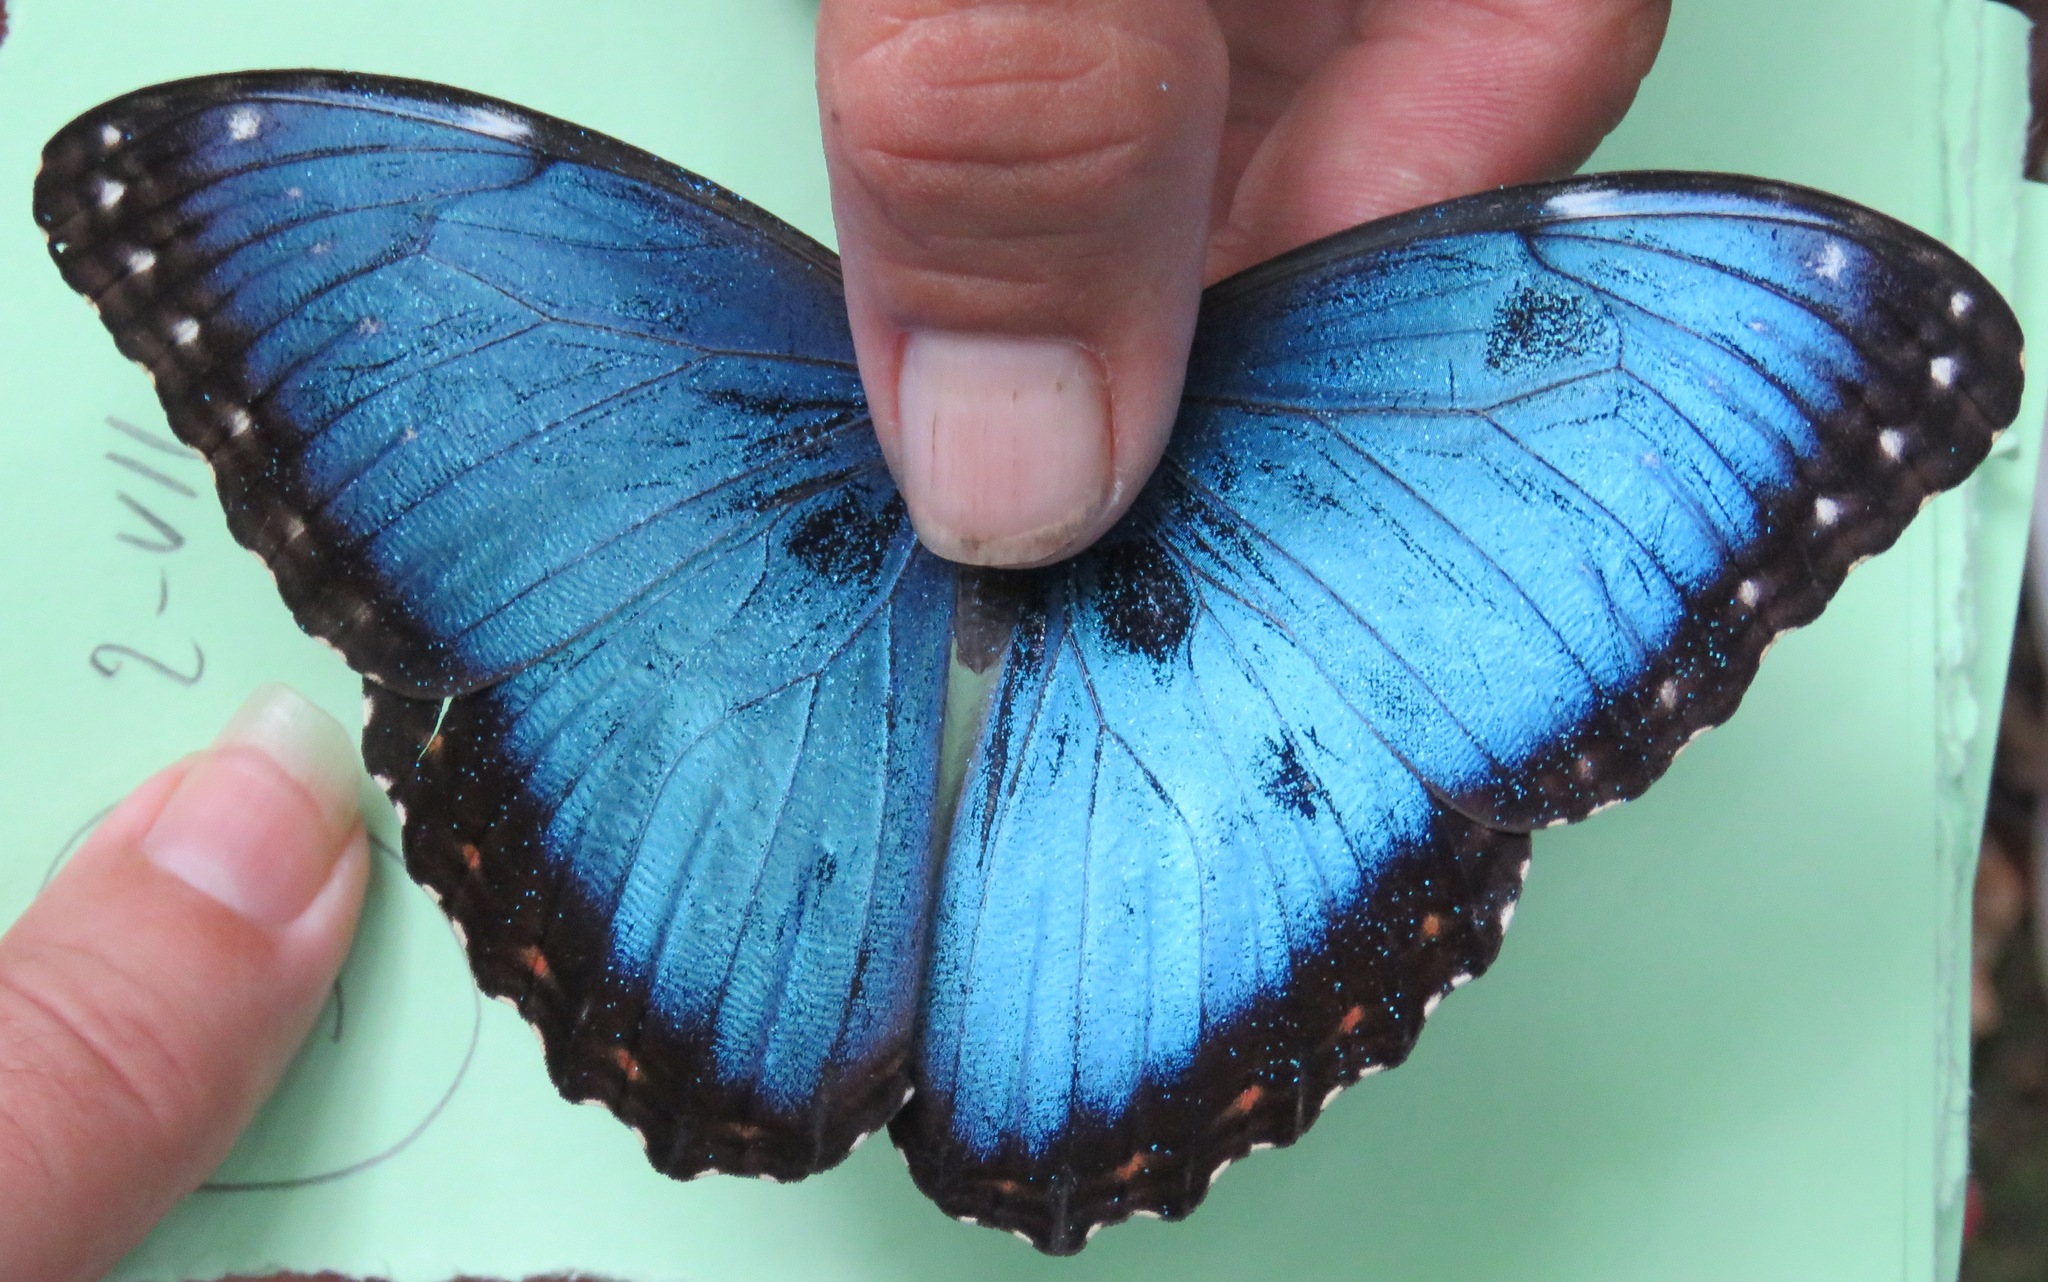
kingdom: Animalia
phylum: Arthropoda
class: Insecta
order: Lepidoptera
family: Nymphalidae
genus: Morpho
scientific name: Morpho helenor
